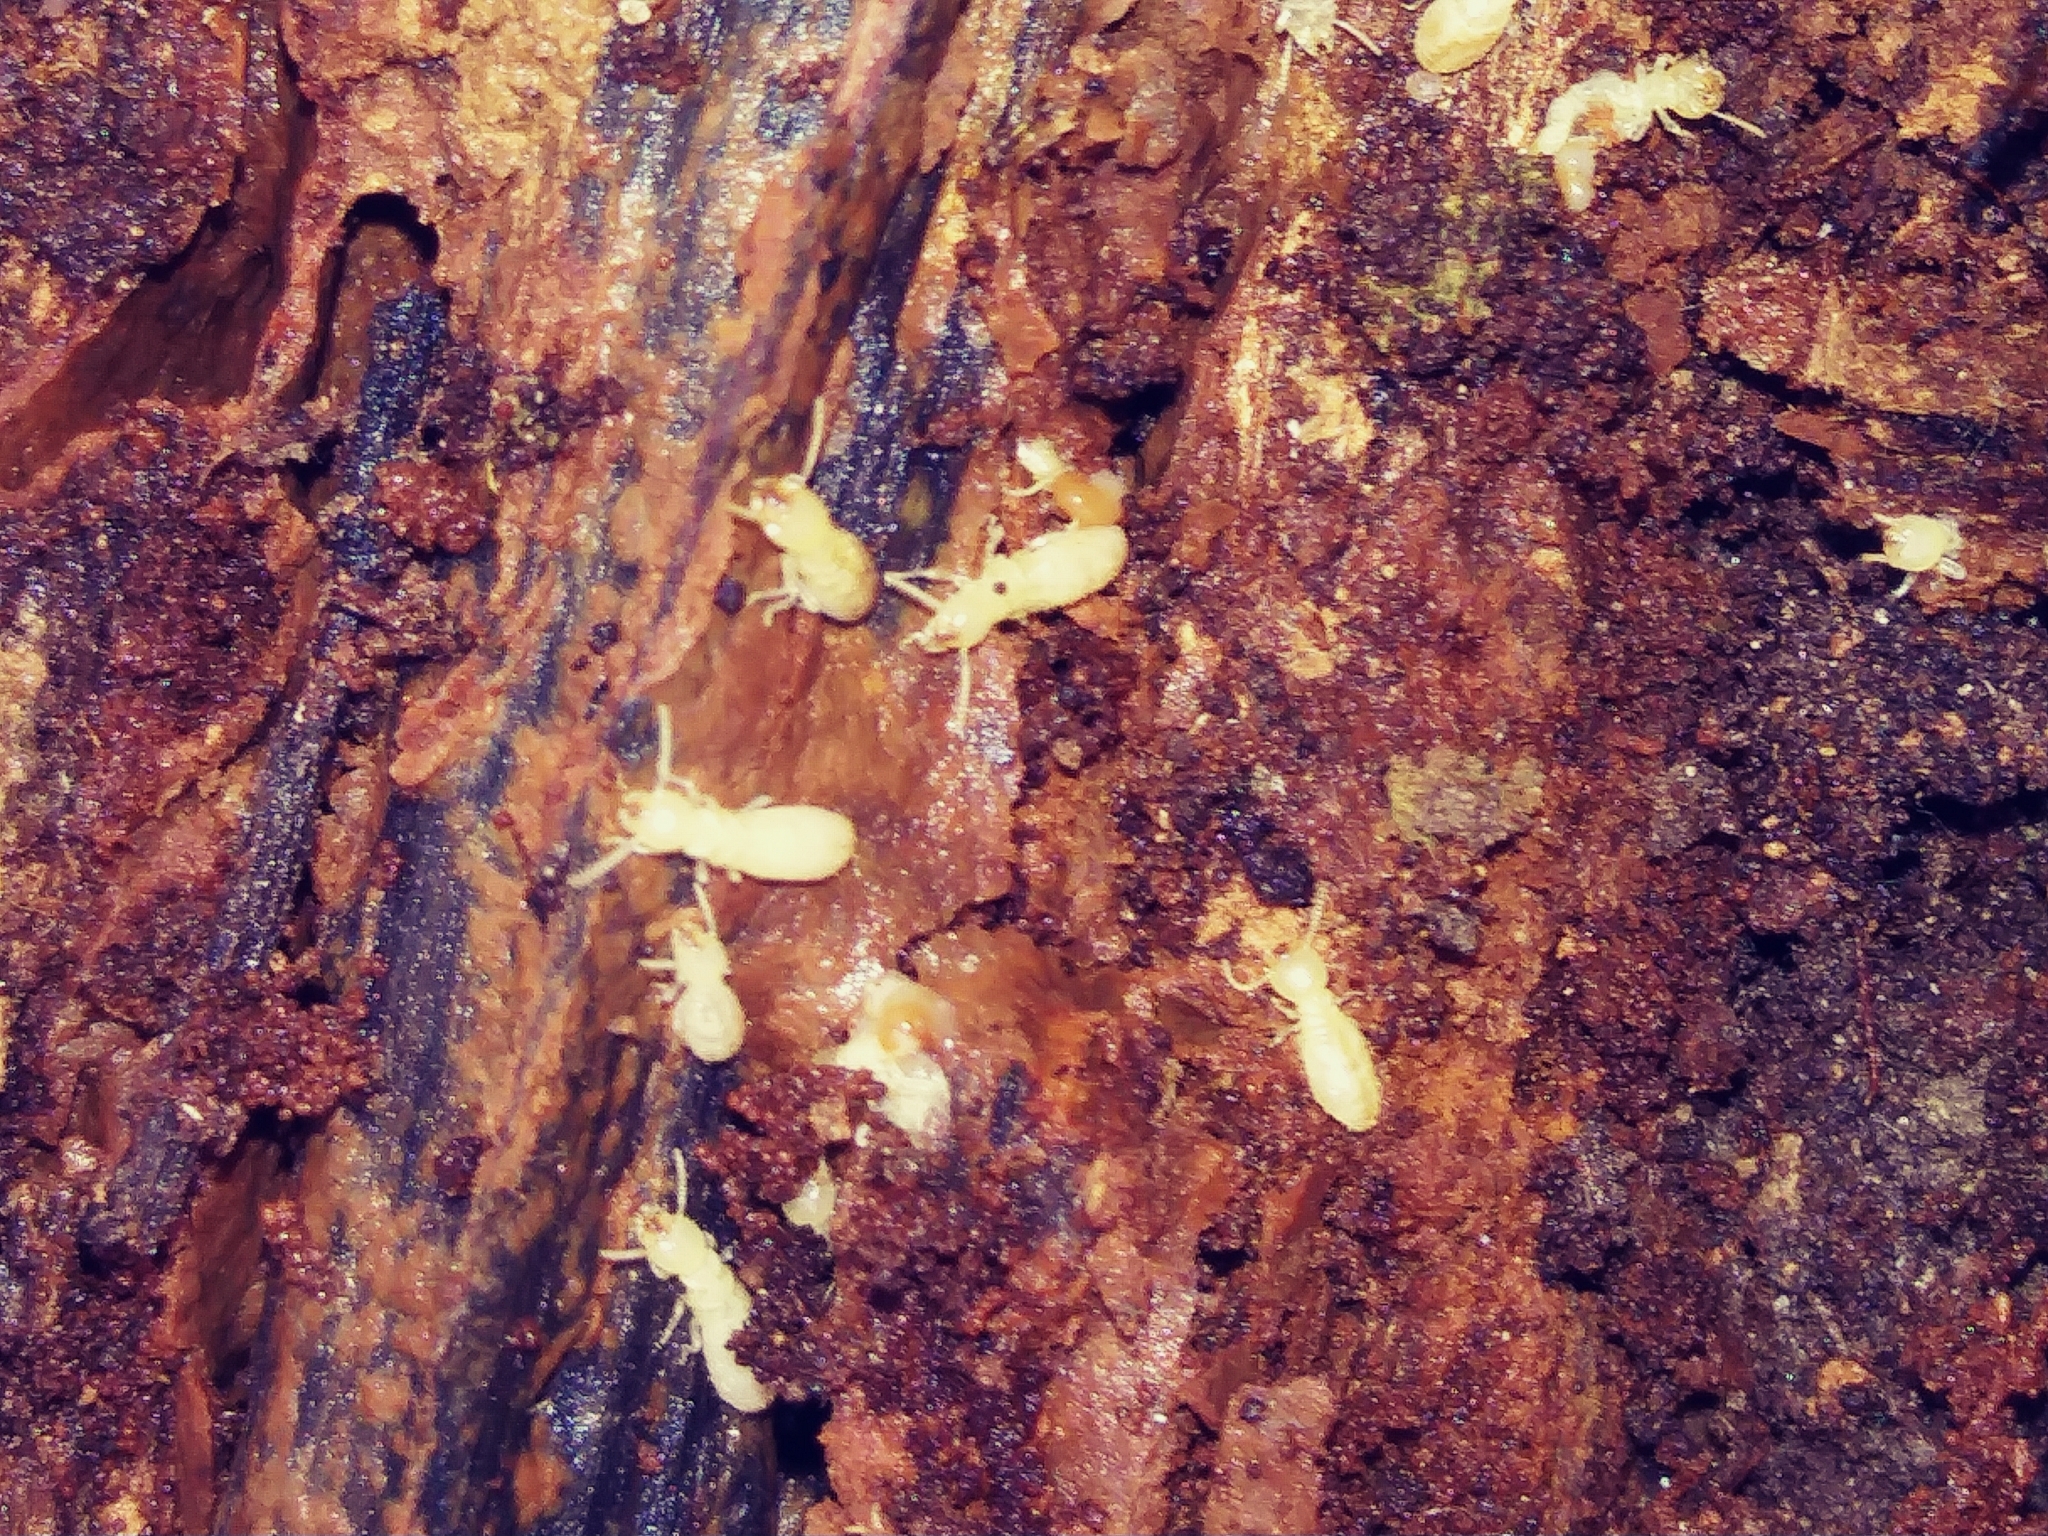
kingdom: Animalia
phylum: Arthropoda
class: Insecta
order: Blattodea
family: Rhinotermitidae
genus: Reticulitermes
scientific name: Reticulitermes flavipes
